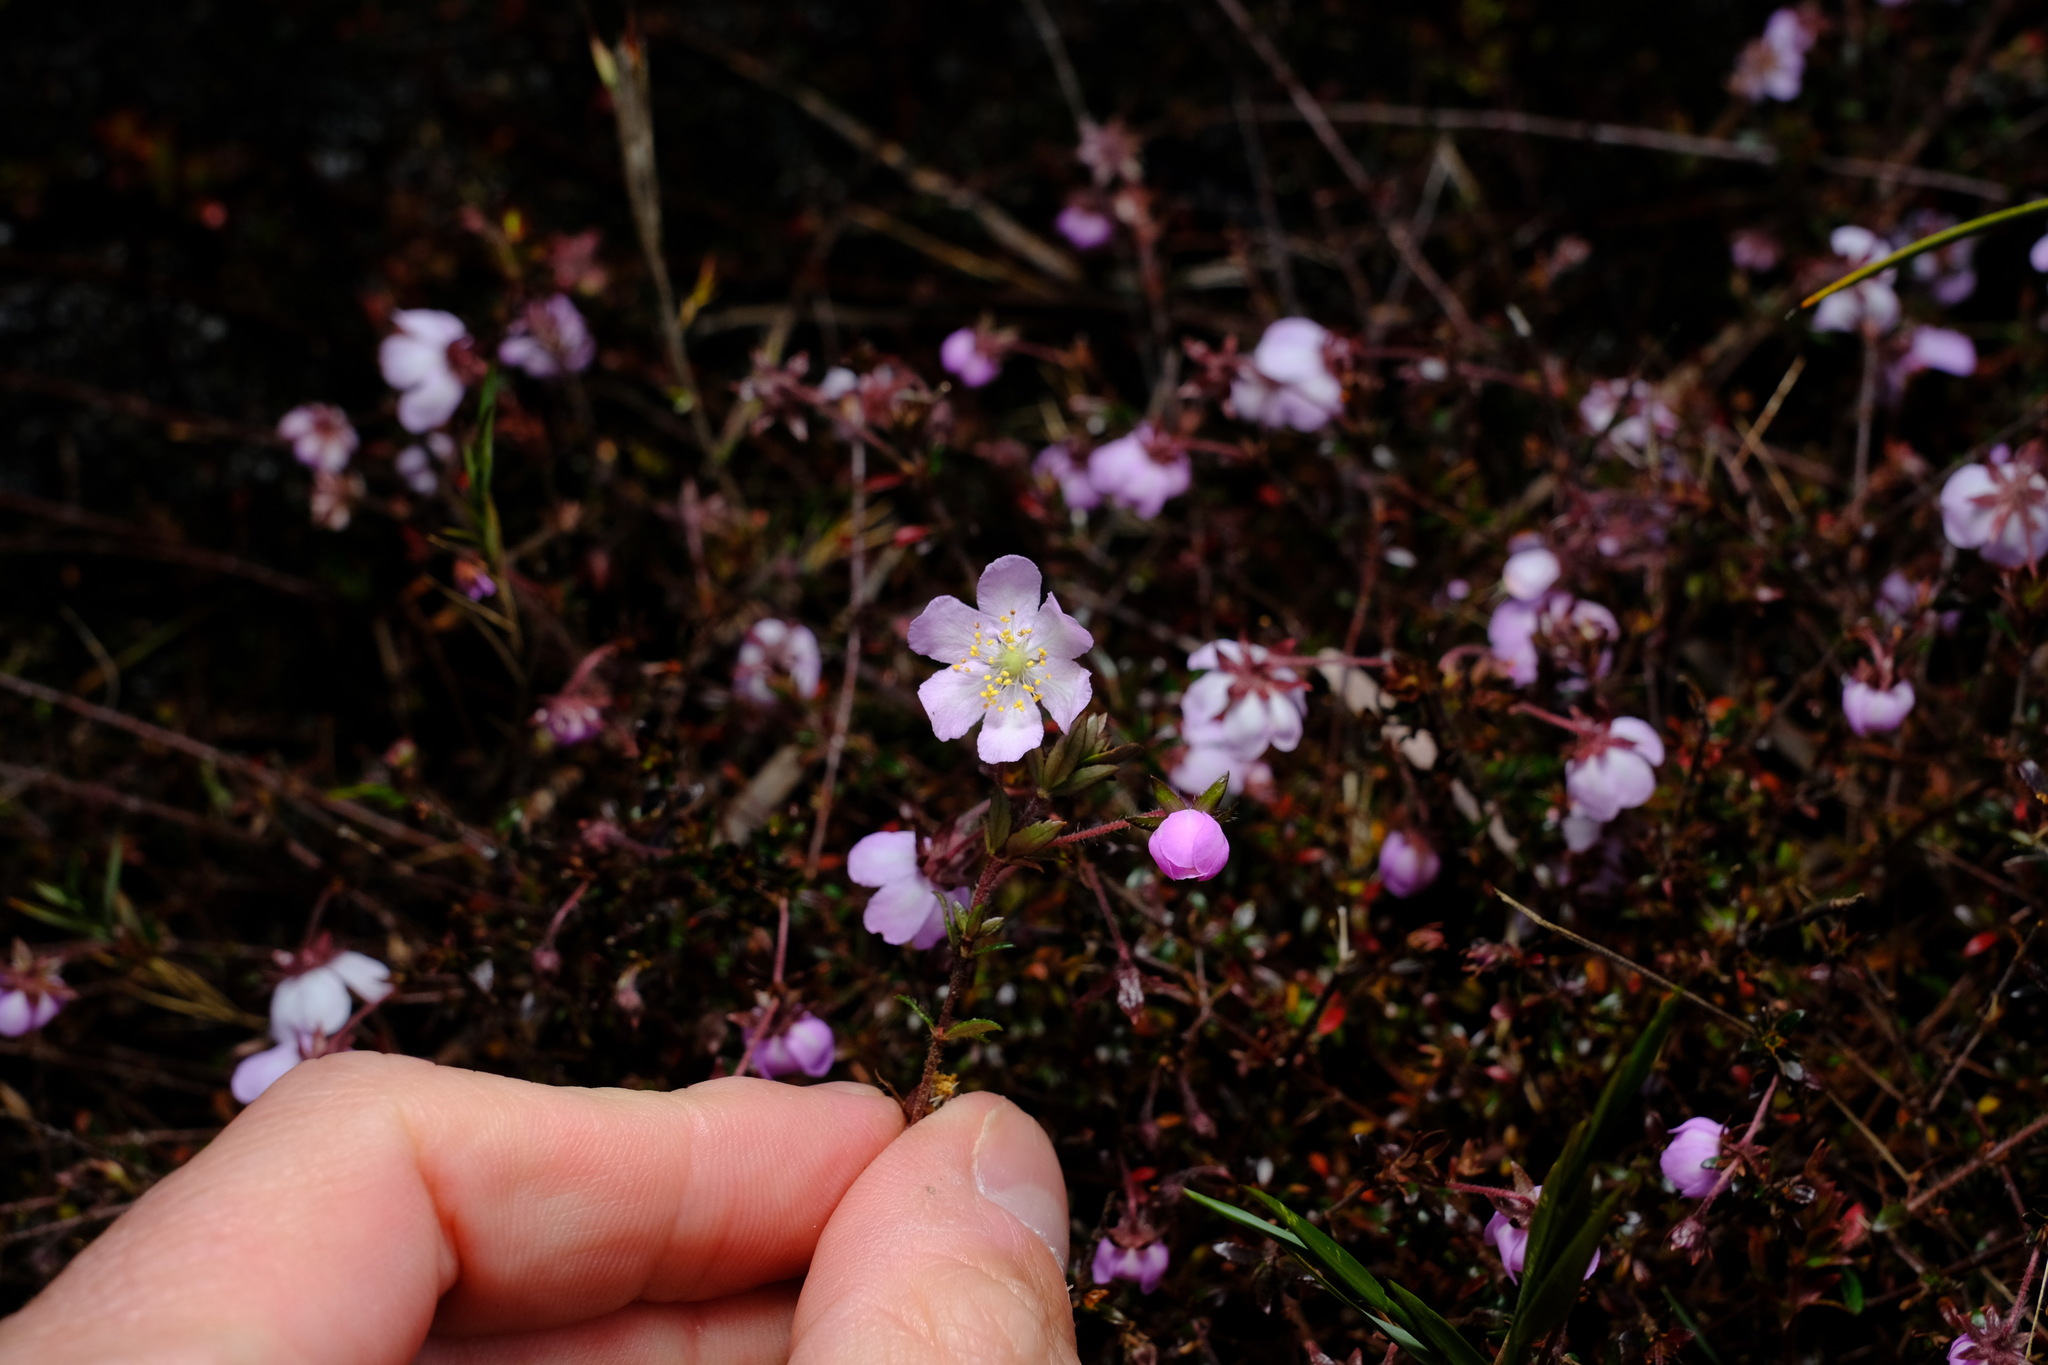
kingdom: Plantae
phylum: Tracheophyta
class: Magnoliopsida
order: Oxalidales
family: Cunoniaceae
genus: Bauera
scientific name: Bauera rubioides
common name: River-rose
